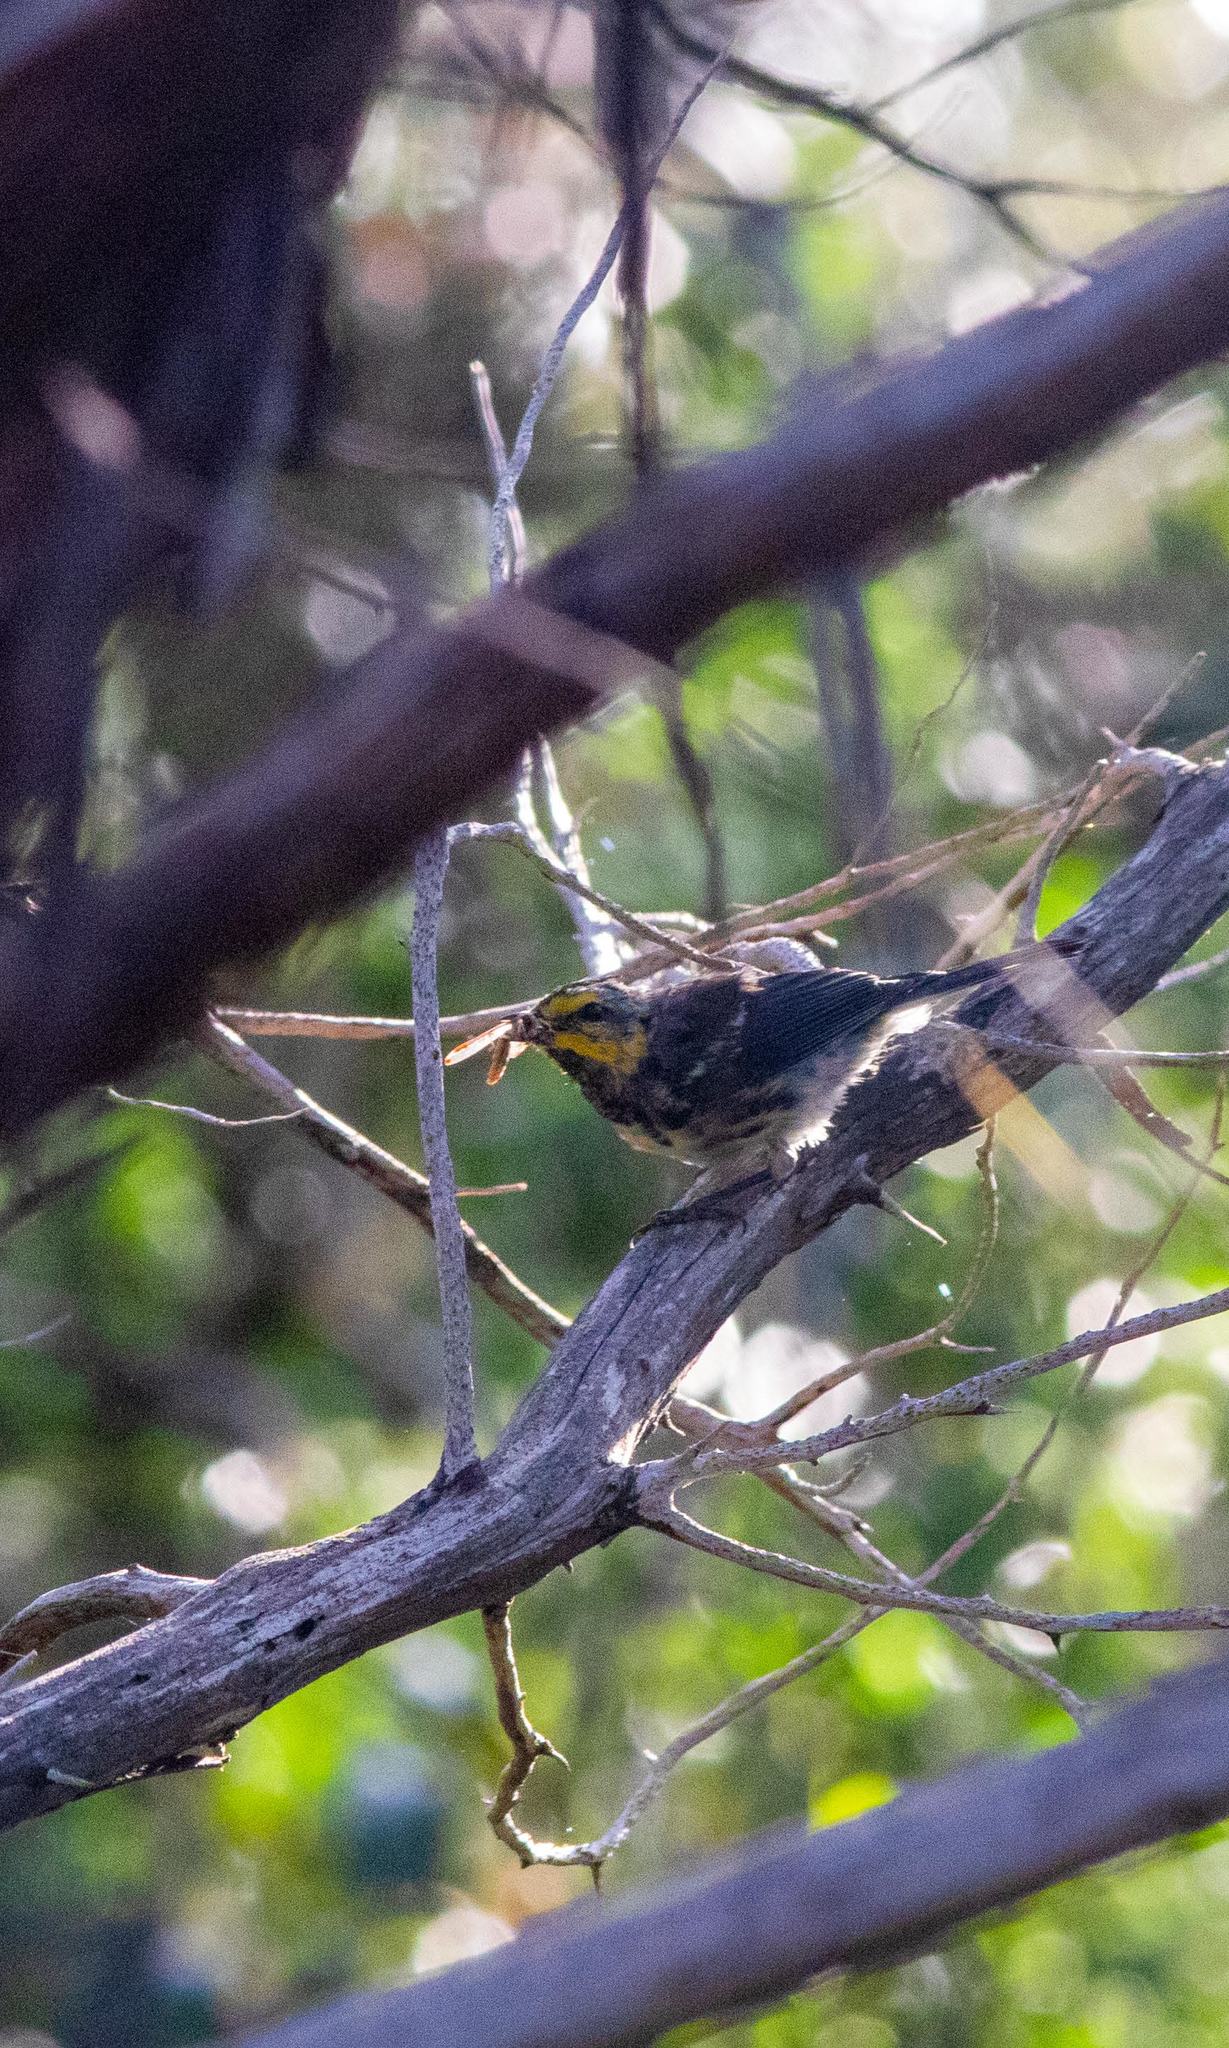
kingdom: Animalia
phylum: Chordata
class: Aves
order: Passeriformes
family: Parulidae
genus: Setophaga
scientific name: Setophaga chrysoparia
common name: Golden-cheeked warbler
